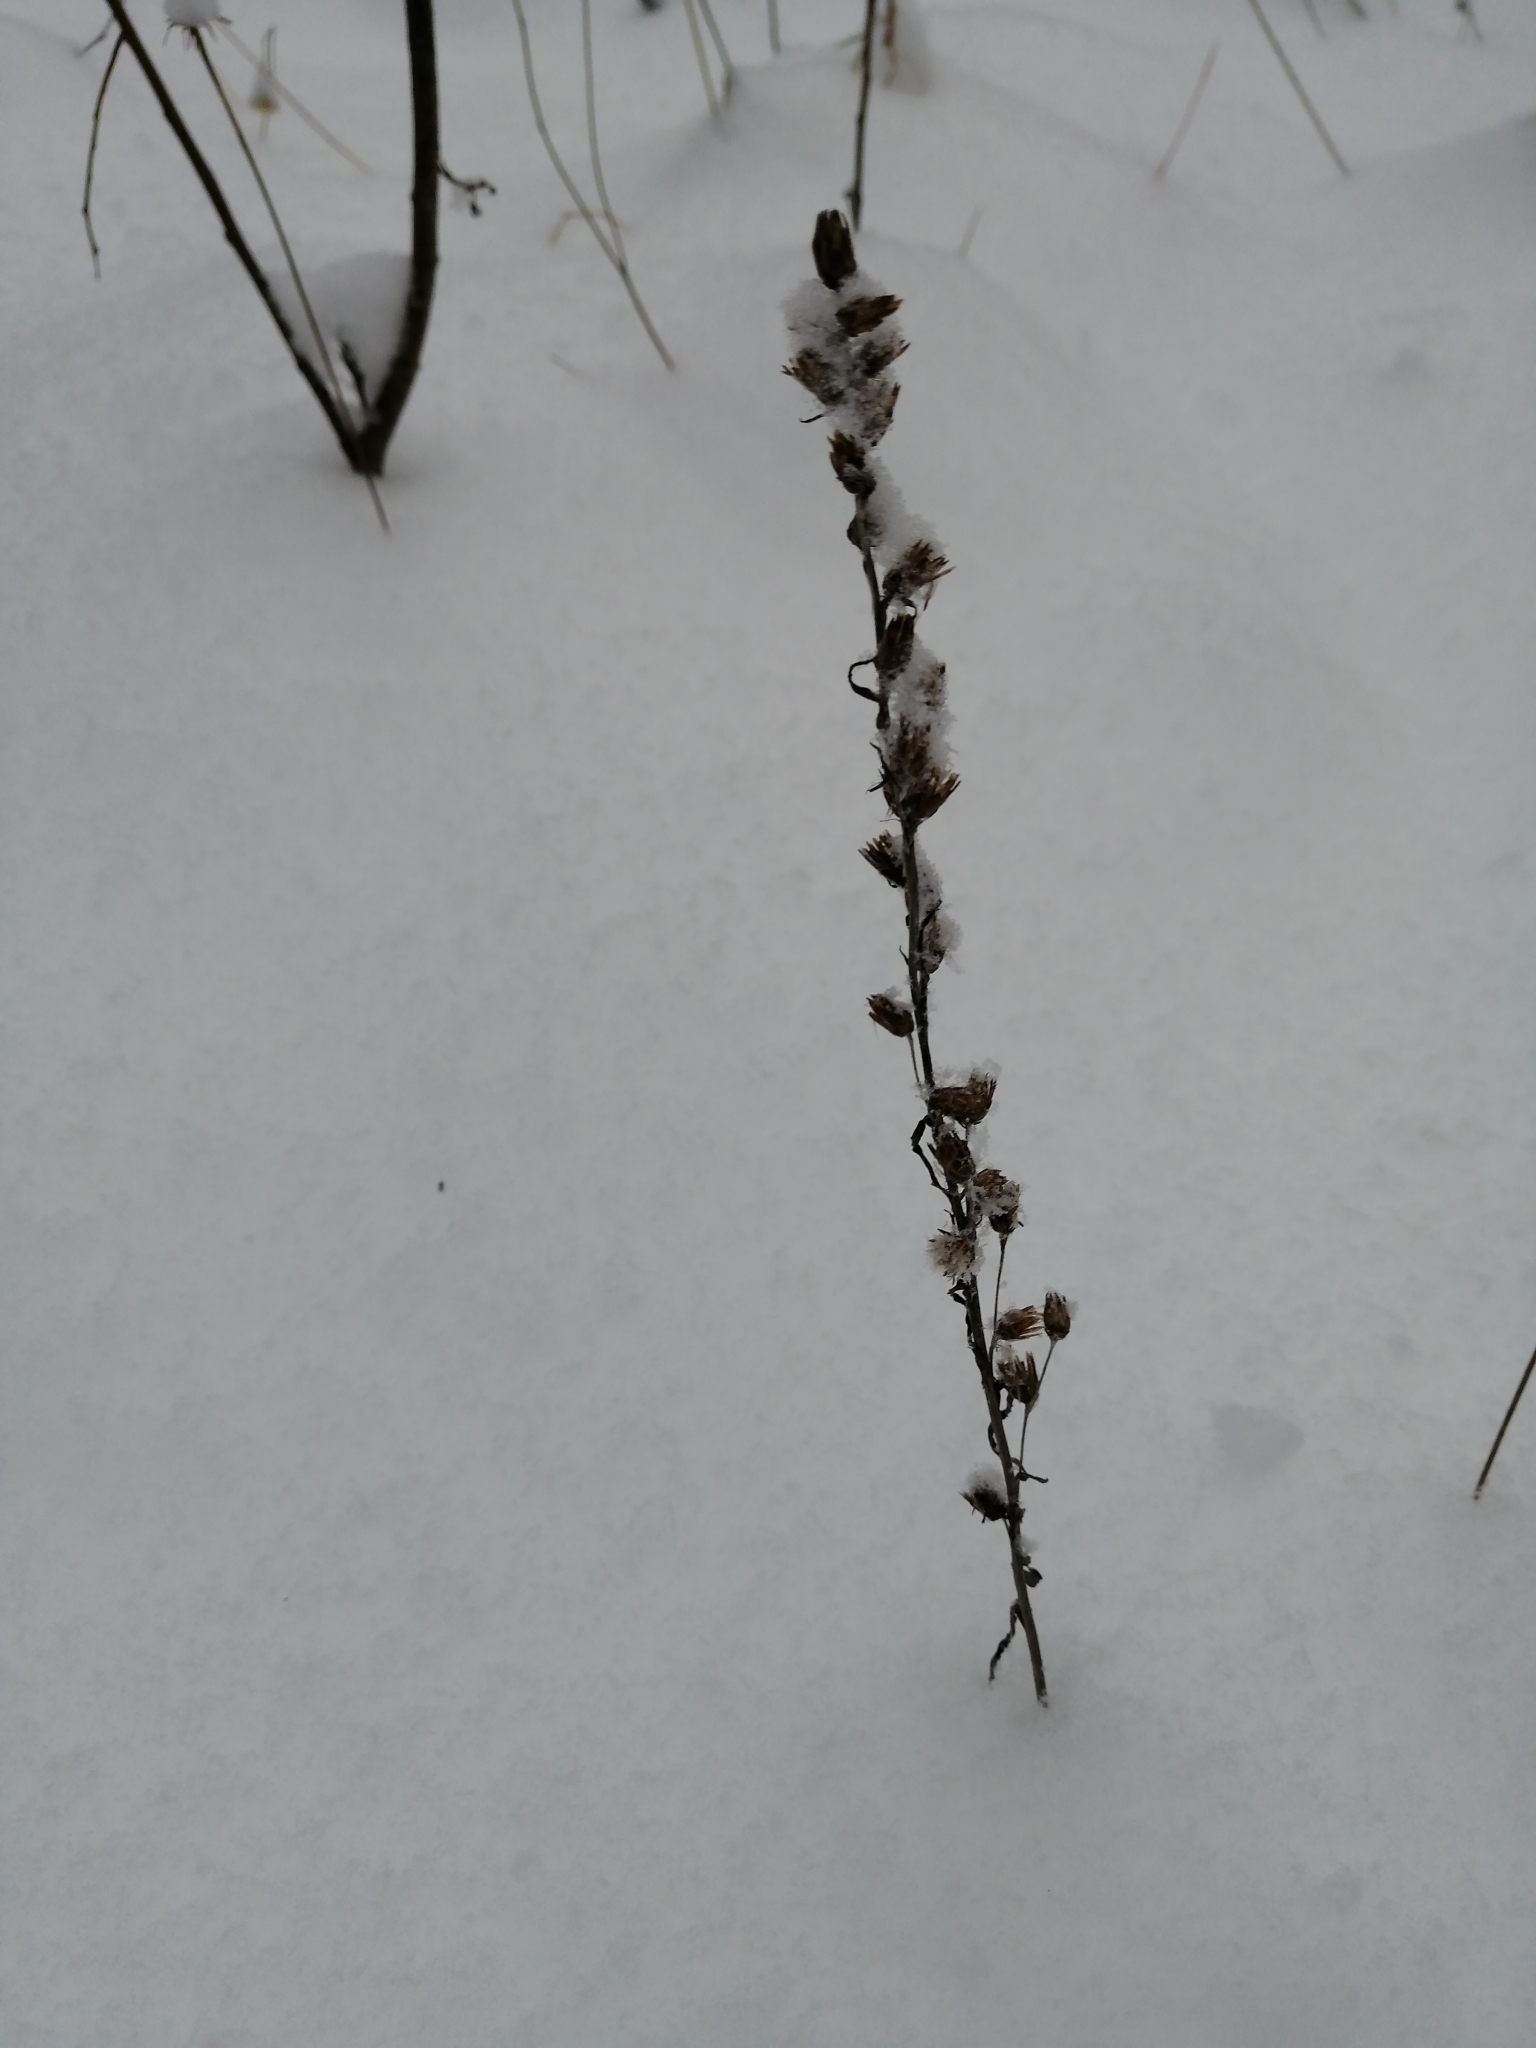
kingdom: Plantae
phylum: Tracheophyta
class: Magnoliopsida
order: Asterales
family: Asteraceae
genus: Omalotheca
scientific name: Omalotheca sylvatica
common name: Heath cudweed
